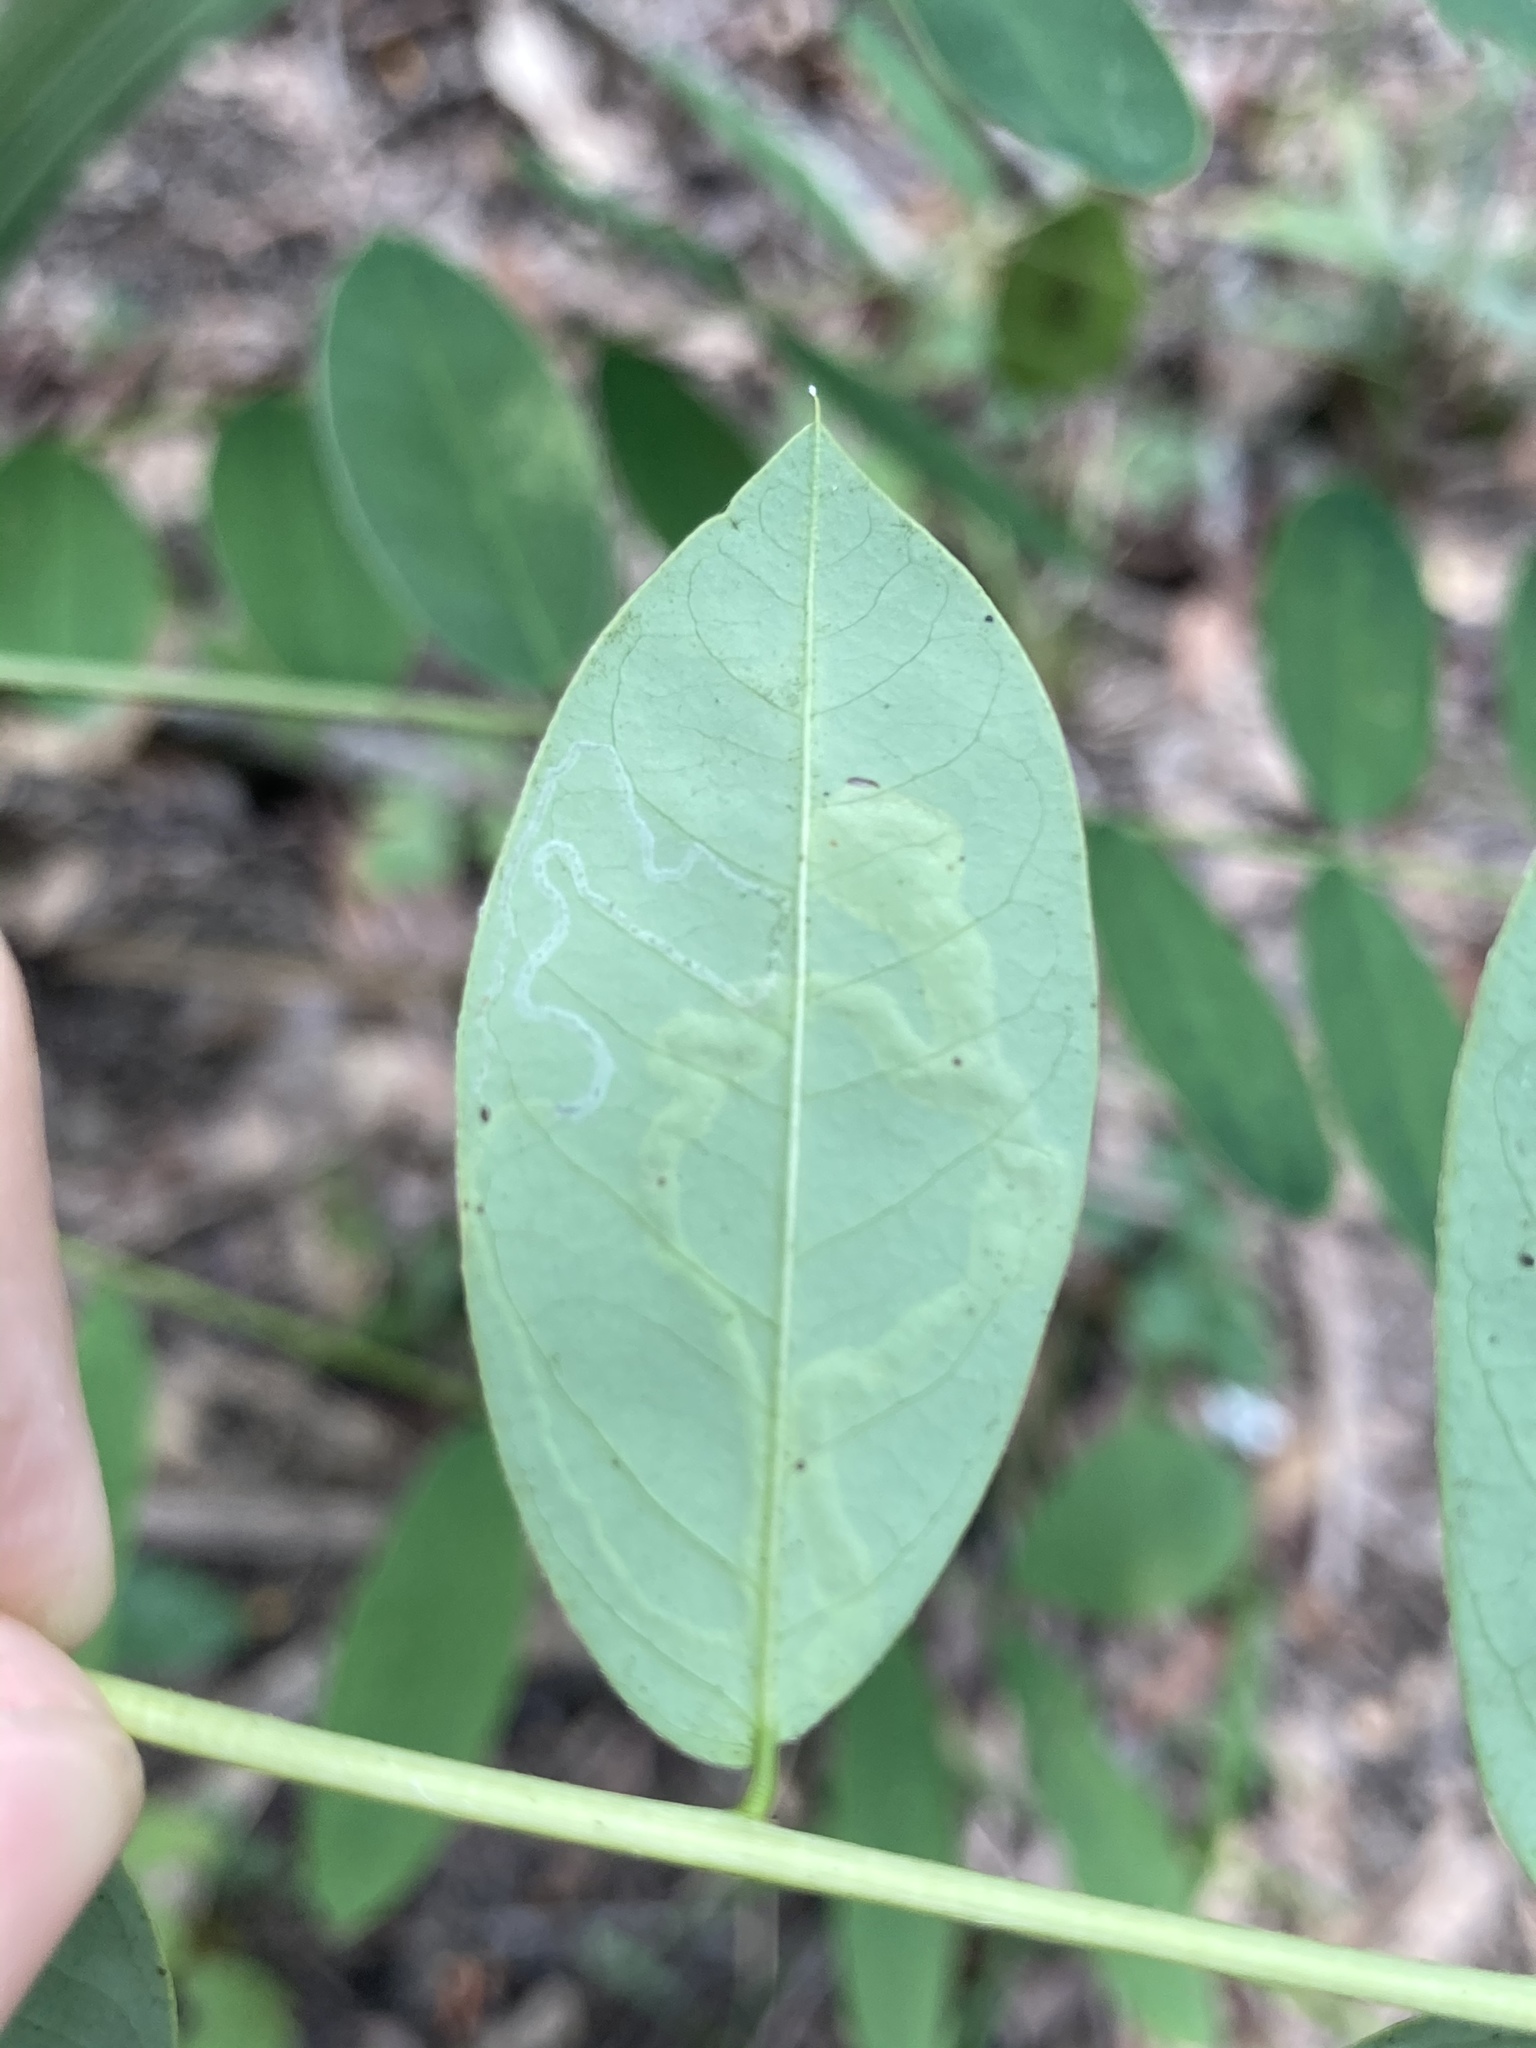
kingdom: Animalia
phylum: Arthropoda
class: Insecta
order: Diptera
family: Agromyzidae
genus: Calycomyza
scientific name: Calycomyza malvae
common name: Mallow leaf miner
